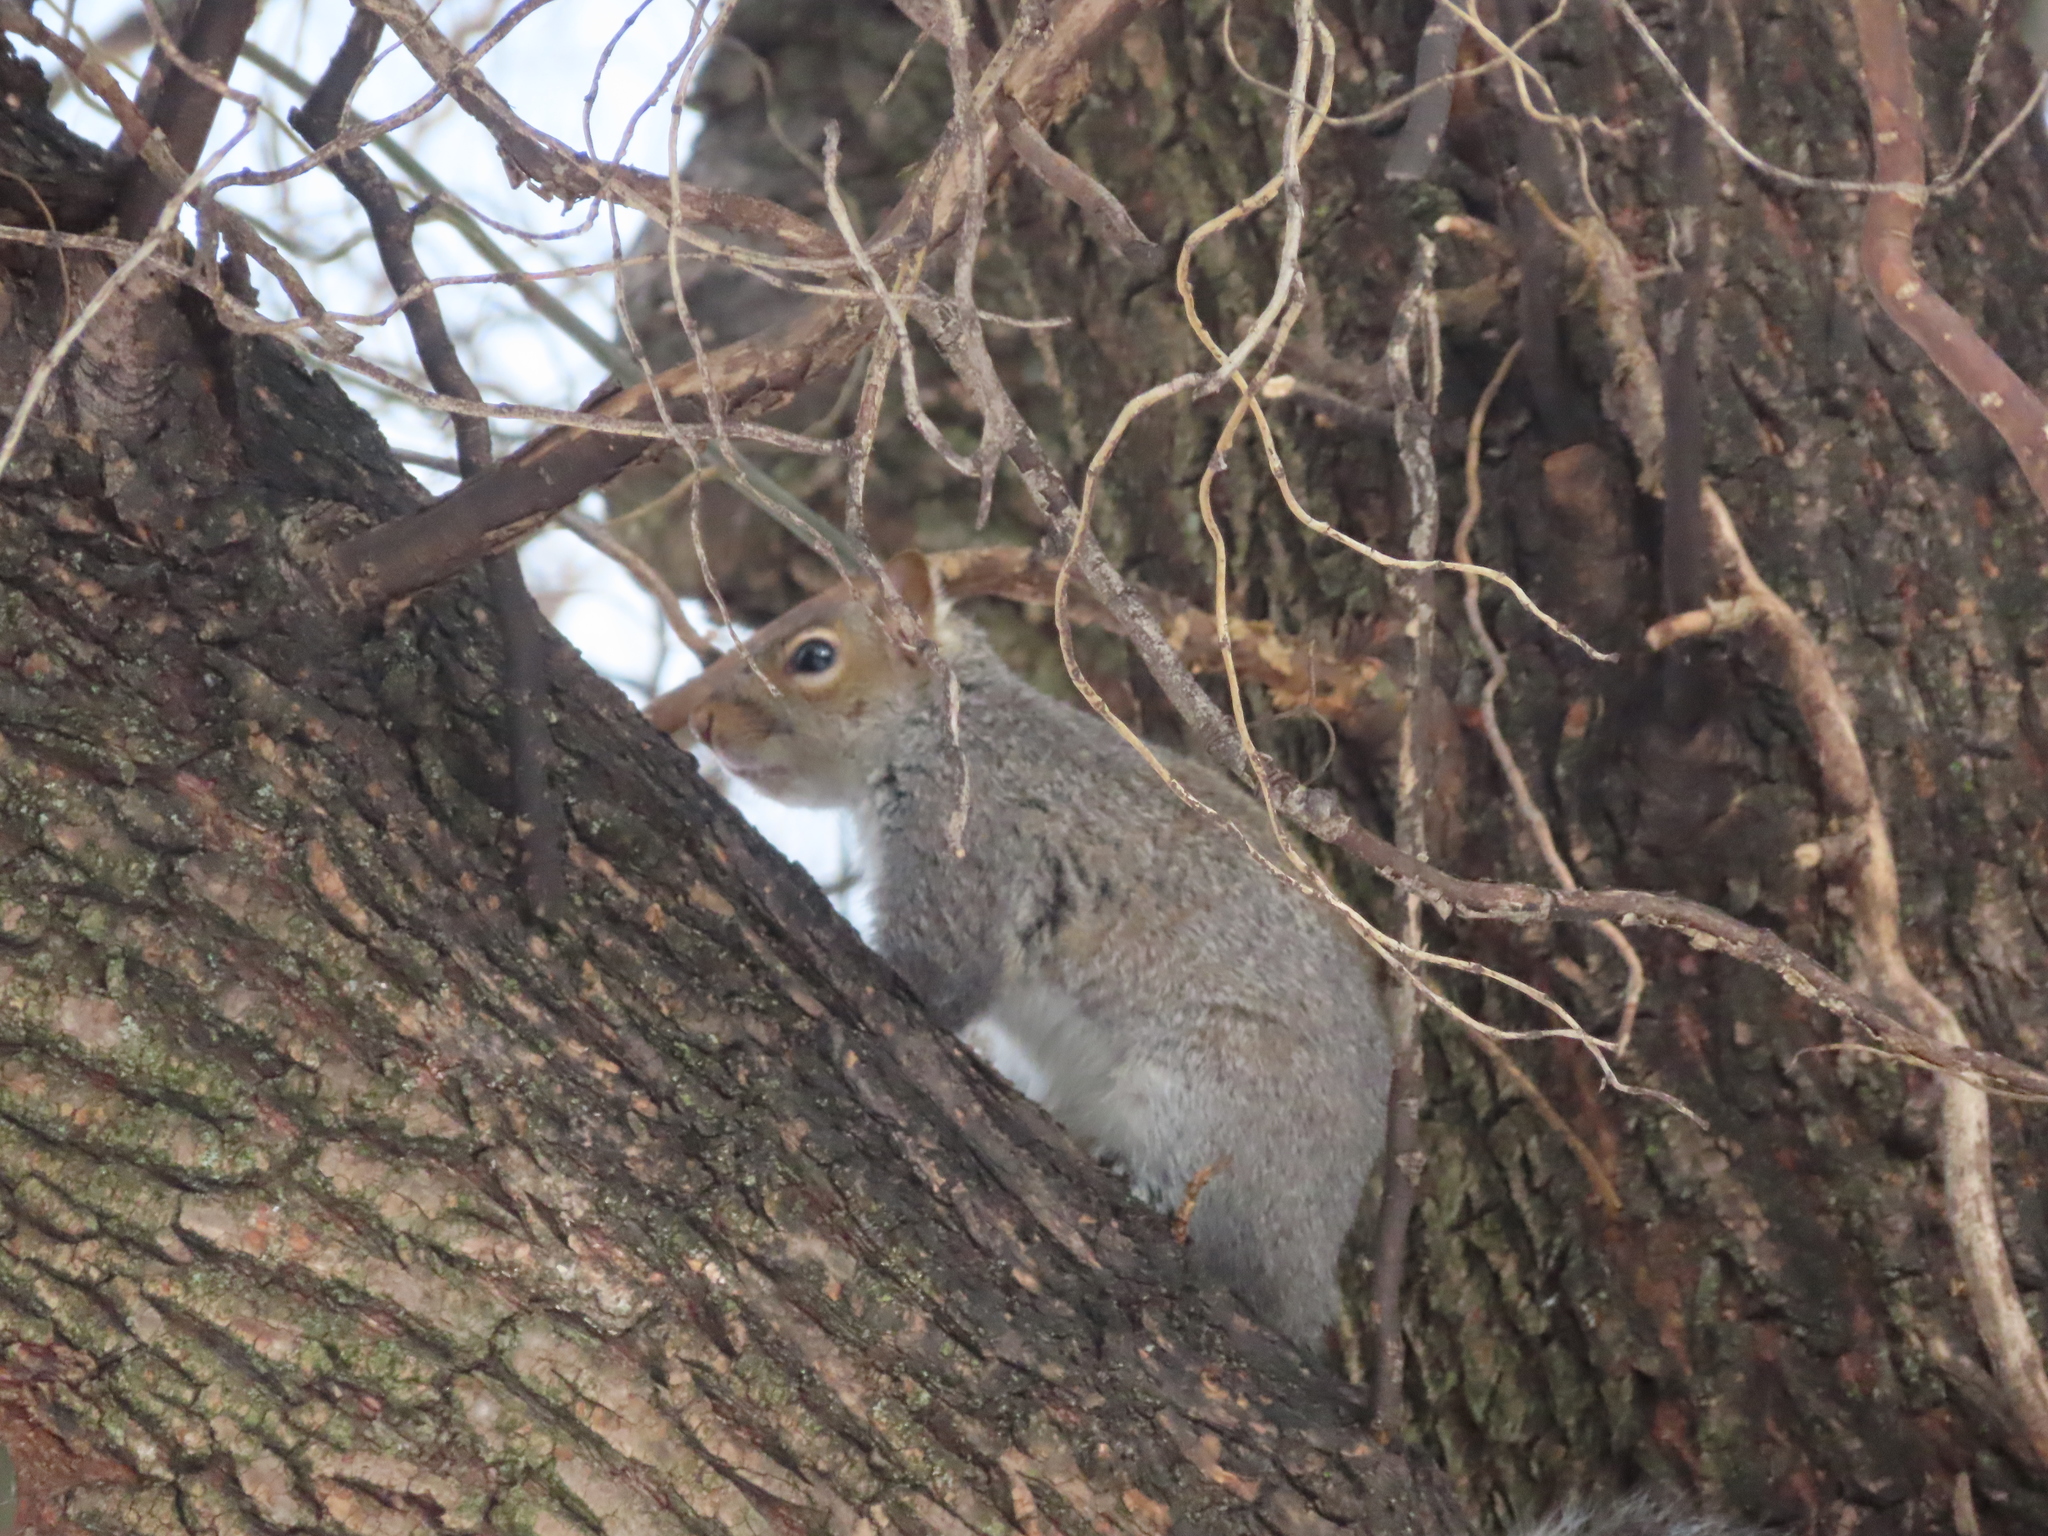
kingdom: Animalia
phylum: Chordata
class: Mammalia
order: Rodentia
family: Sciuridae
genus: Sciurus
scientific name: Sciurus carolinensis
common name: Eastern gray squirrel
